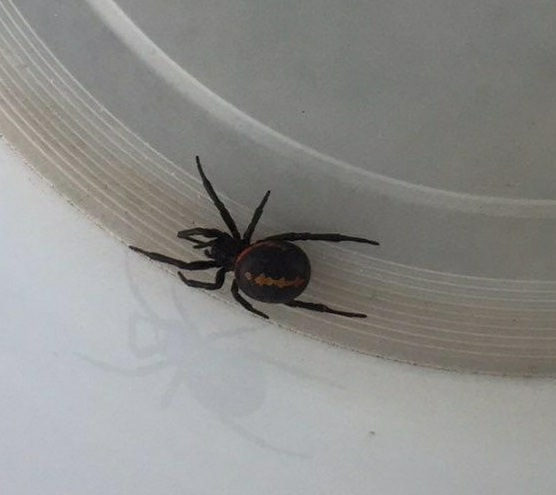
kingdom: Animalia
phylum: Arthropoda
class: Arachnida
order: Araneae
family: Theridiidae
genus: Steatoda
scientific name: Steatoda paykulliana
